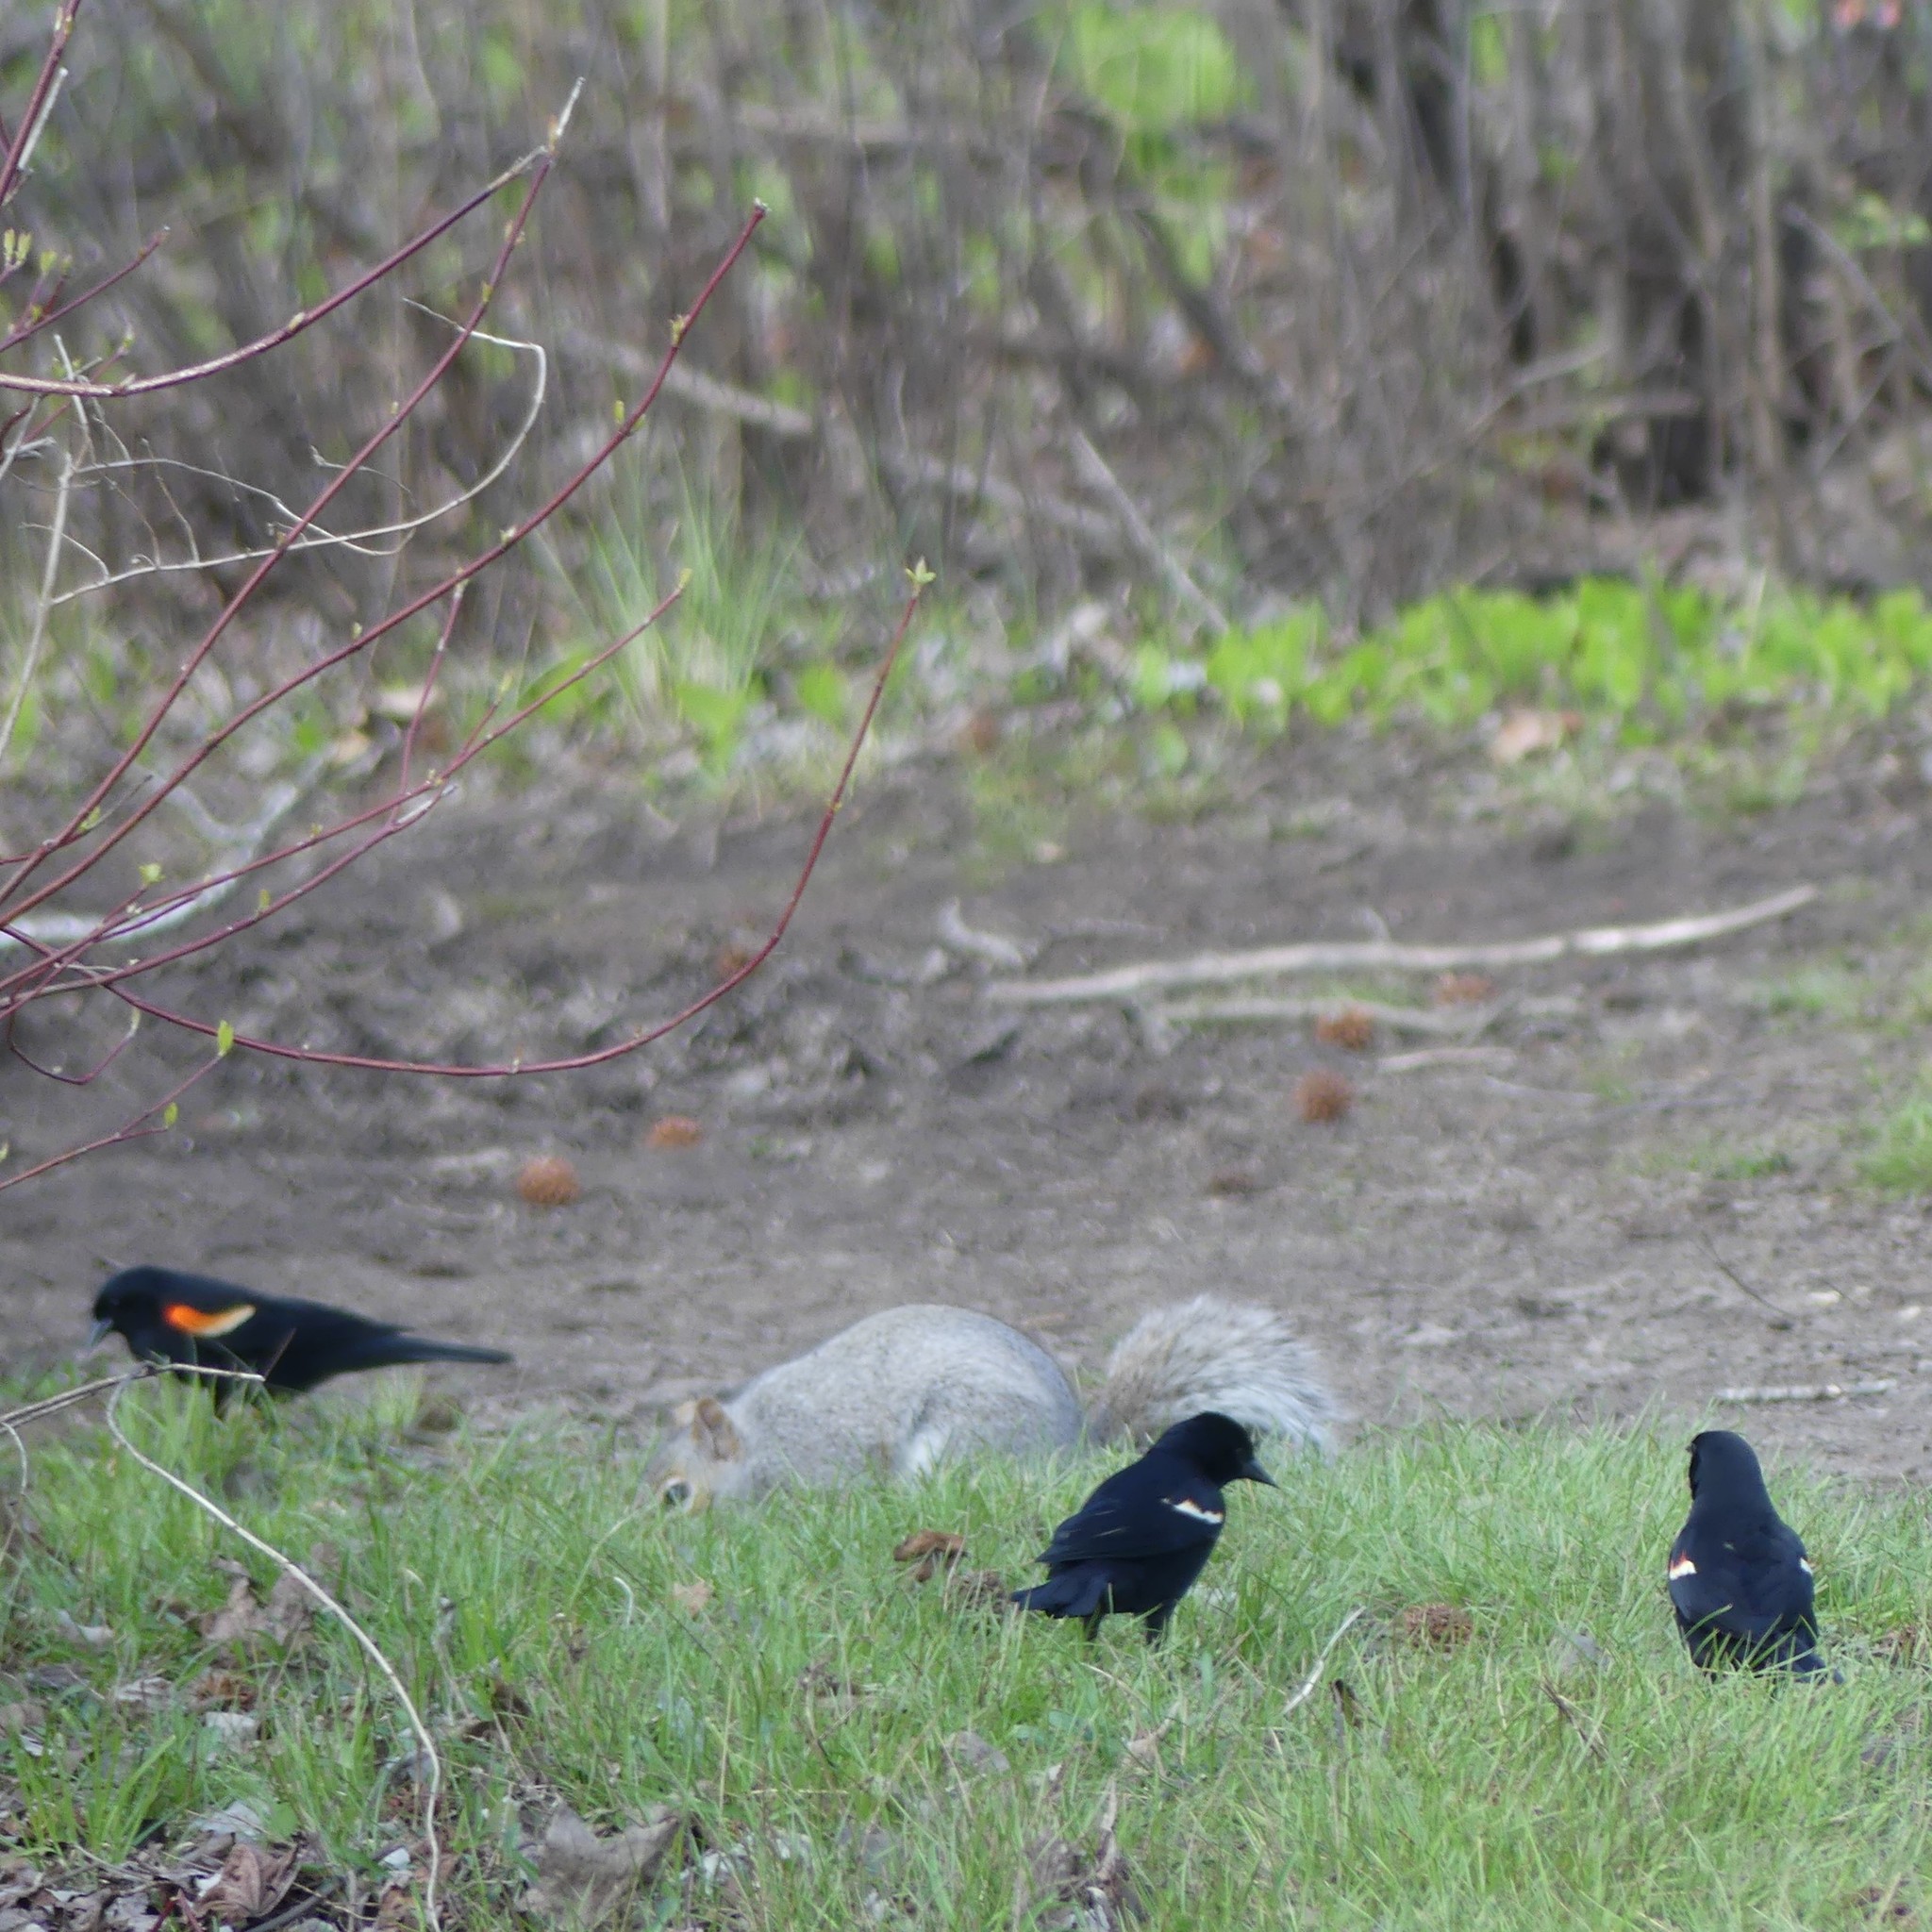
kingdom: Animalia
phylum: Chordata
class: Aves
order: Passeriformes
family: Icteridae
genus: Agelaius
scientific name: Agelaius phoeniceus
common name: Red-winged blackbird
